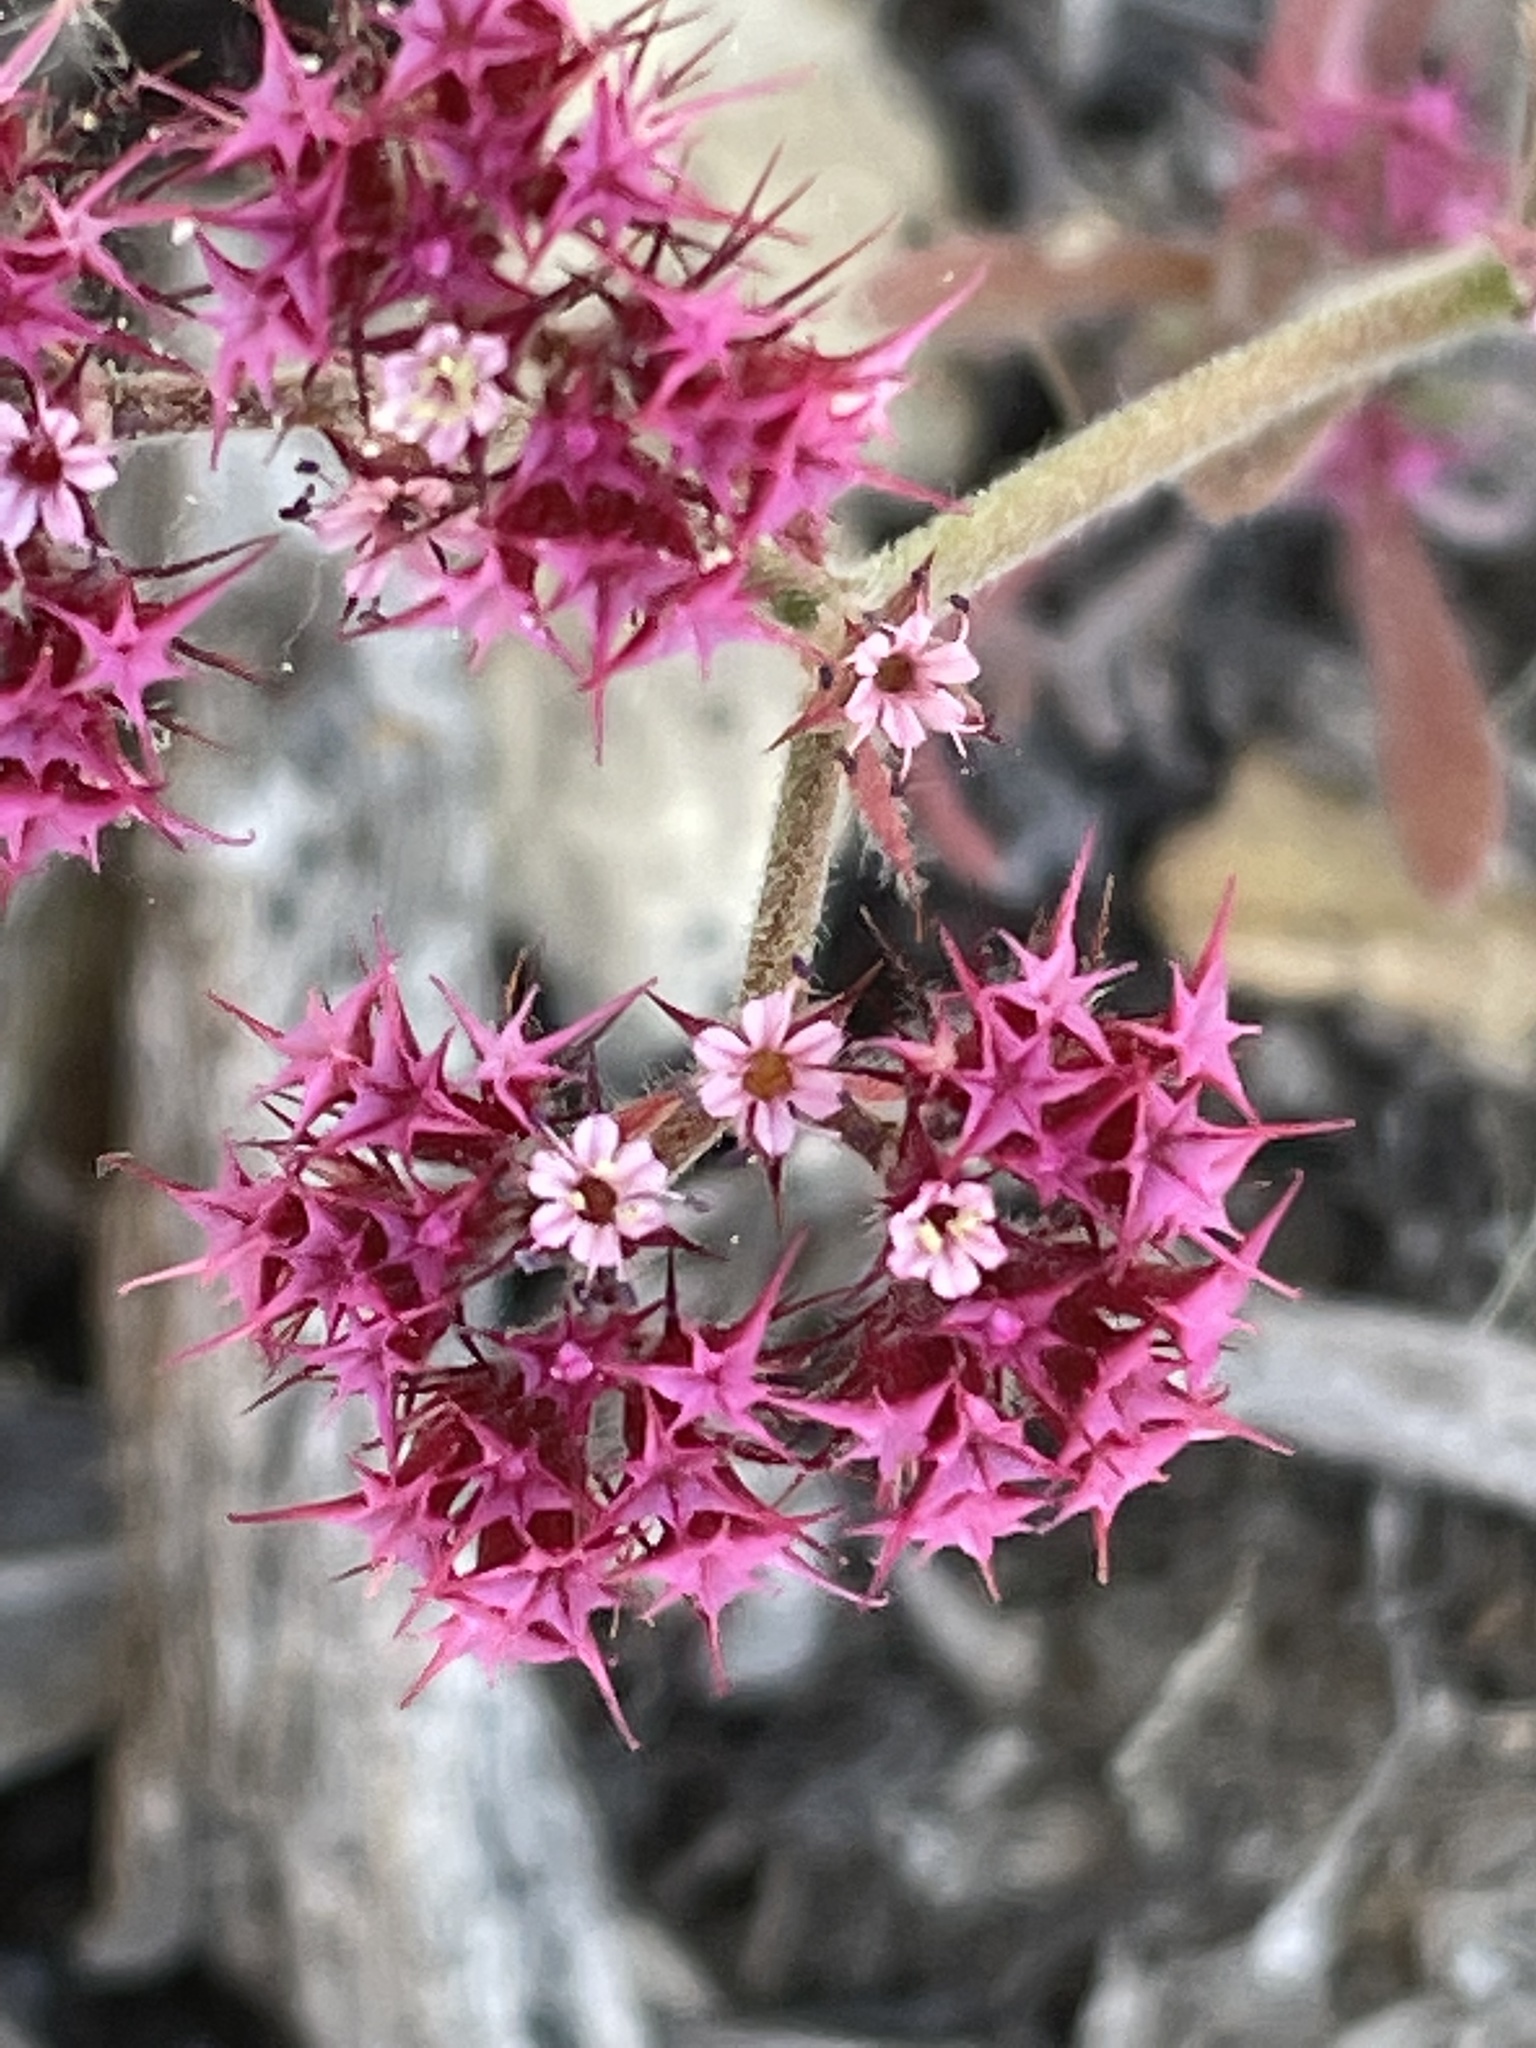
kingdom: Plantae
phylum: Tracheophyta
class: Magnoliopsida
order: Caryophyllales
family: Polygonaceae
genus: Chorizanthe
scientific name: Chorizanthe douglasii
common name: Douglas's spineflower
